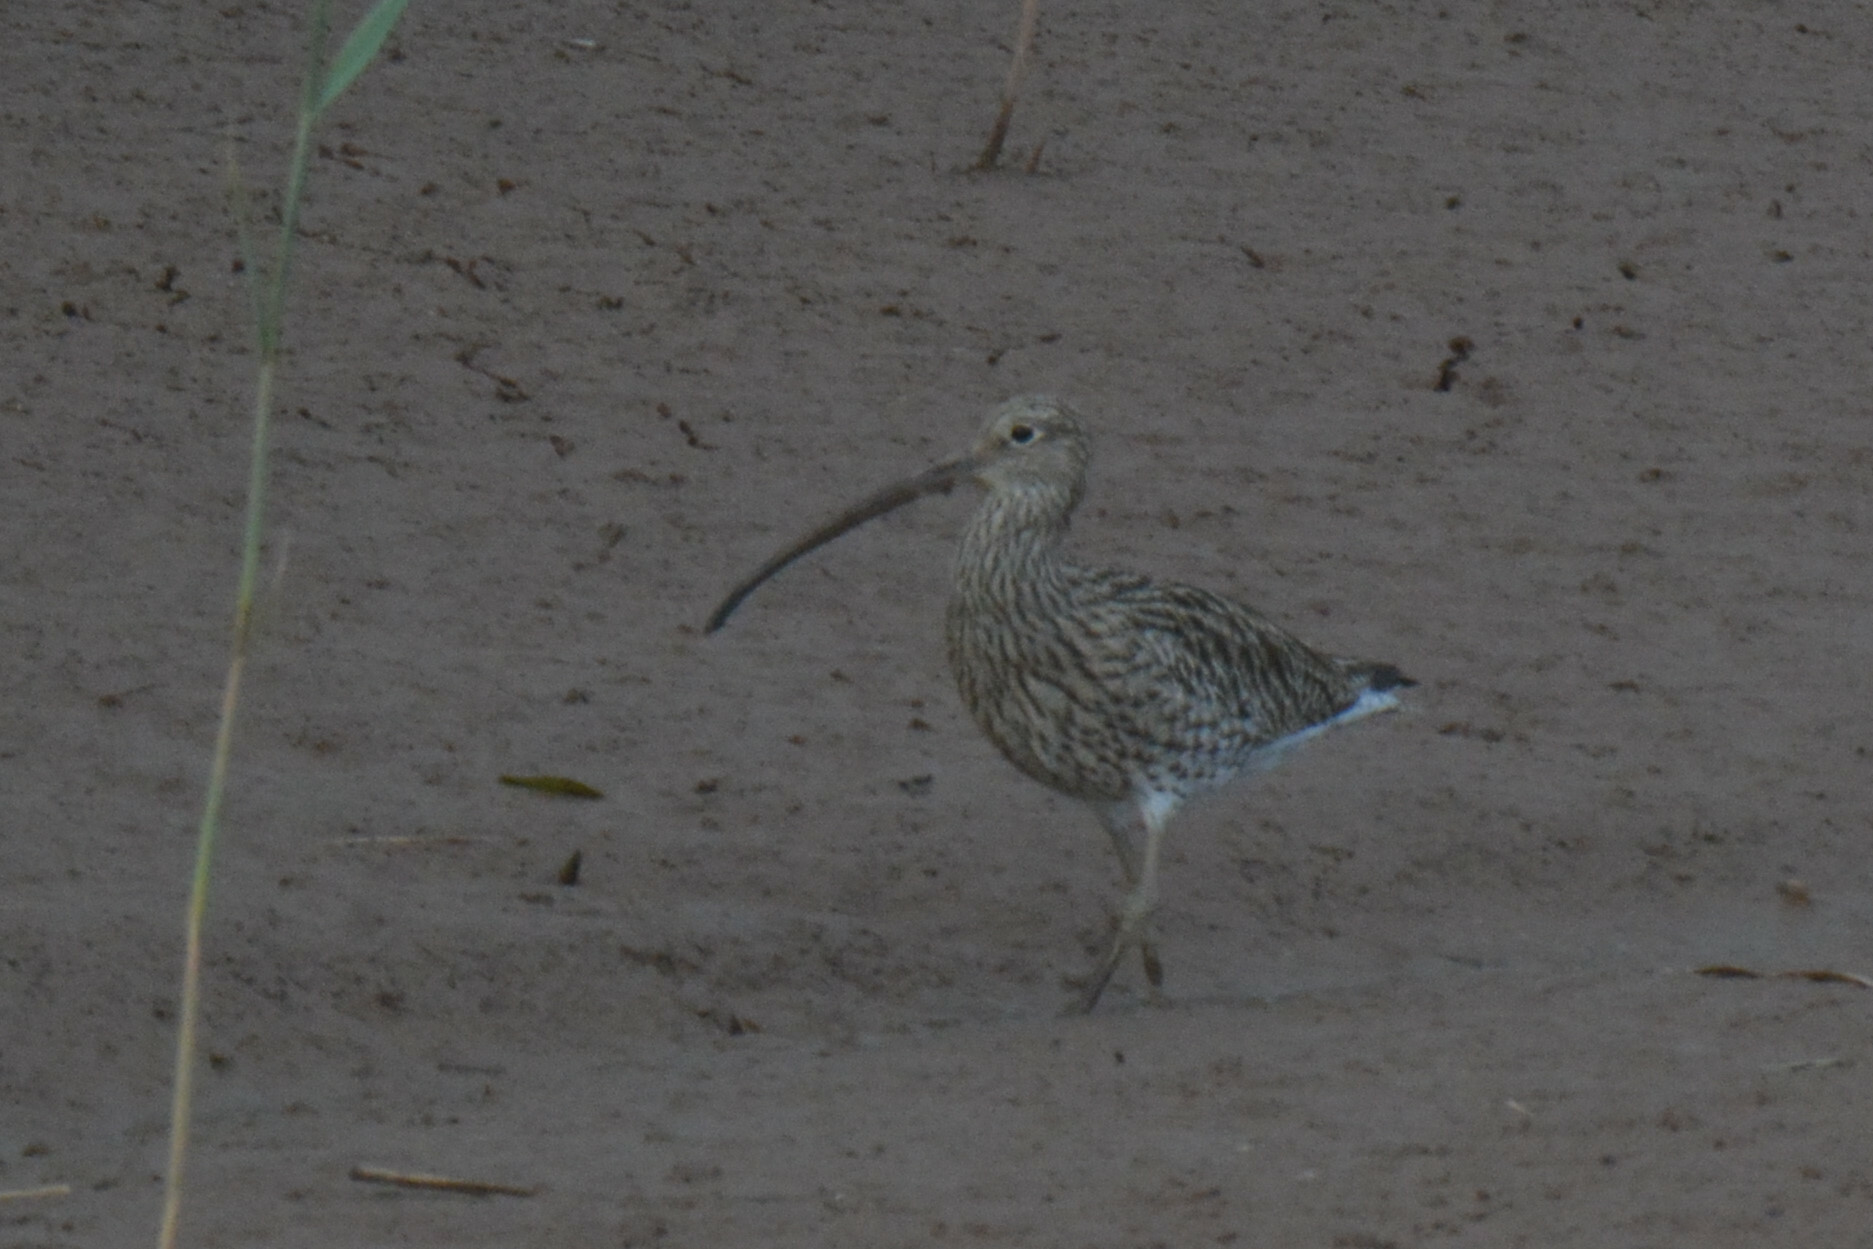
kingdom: Animalia
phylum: Chordata
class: Aves
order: Charadriiformes
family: Scolopacidae
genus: Numenius
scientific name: Numenius arquata
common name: Eurasian curlew
